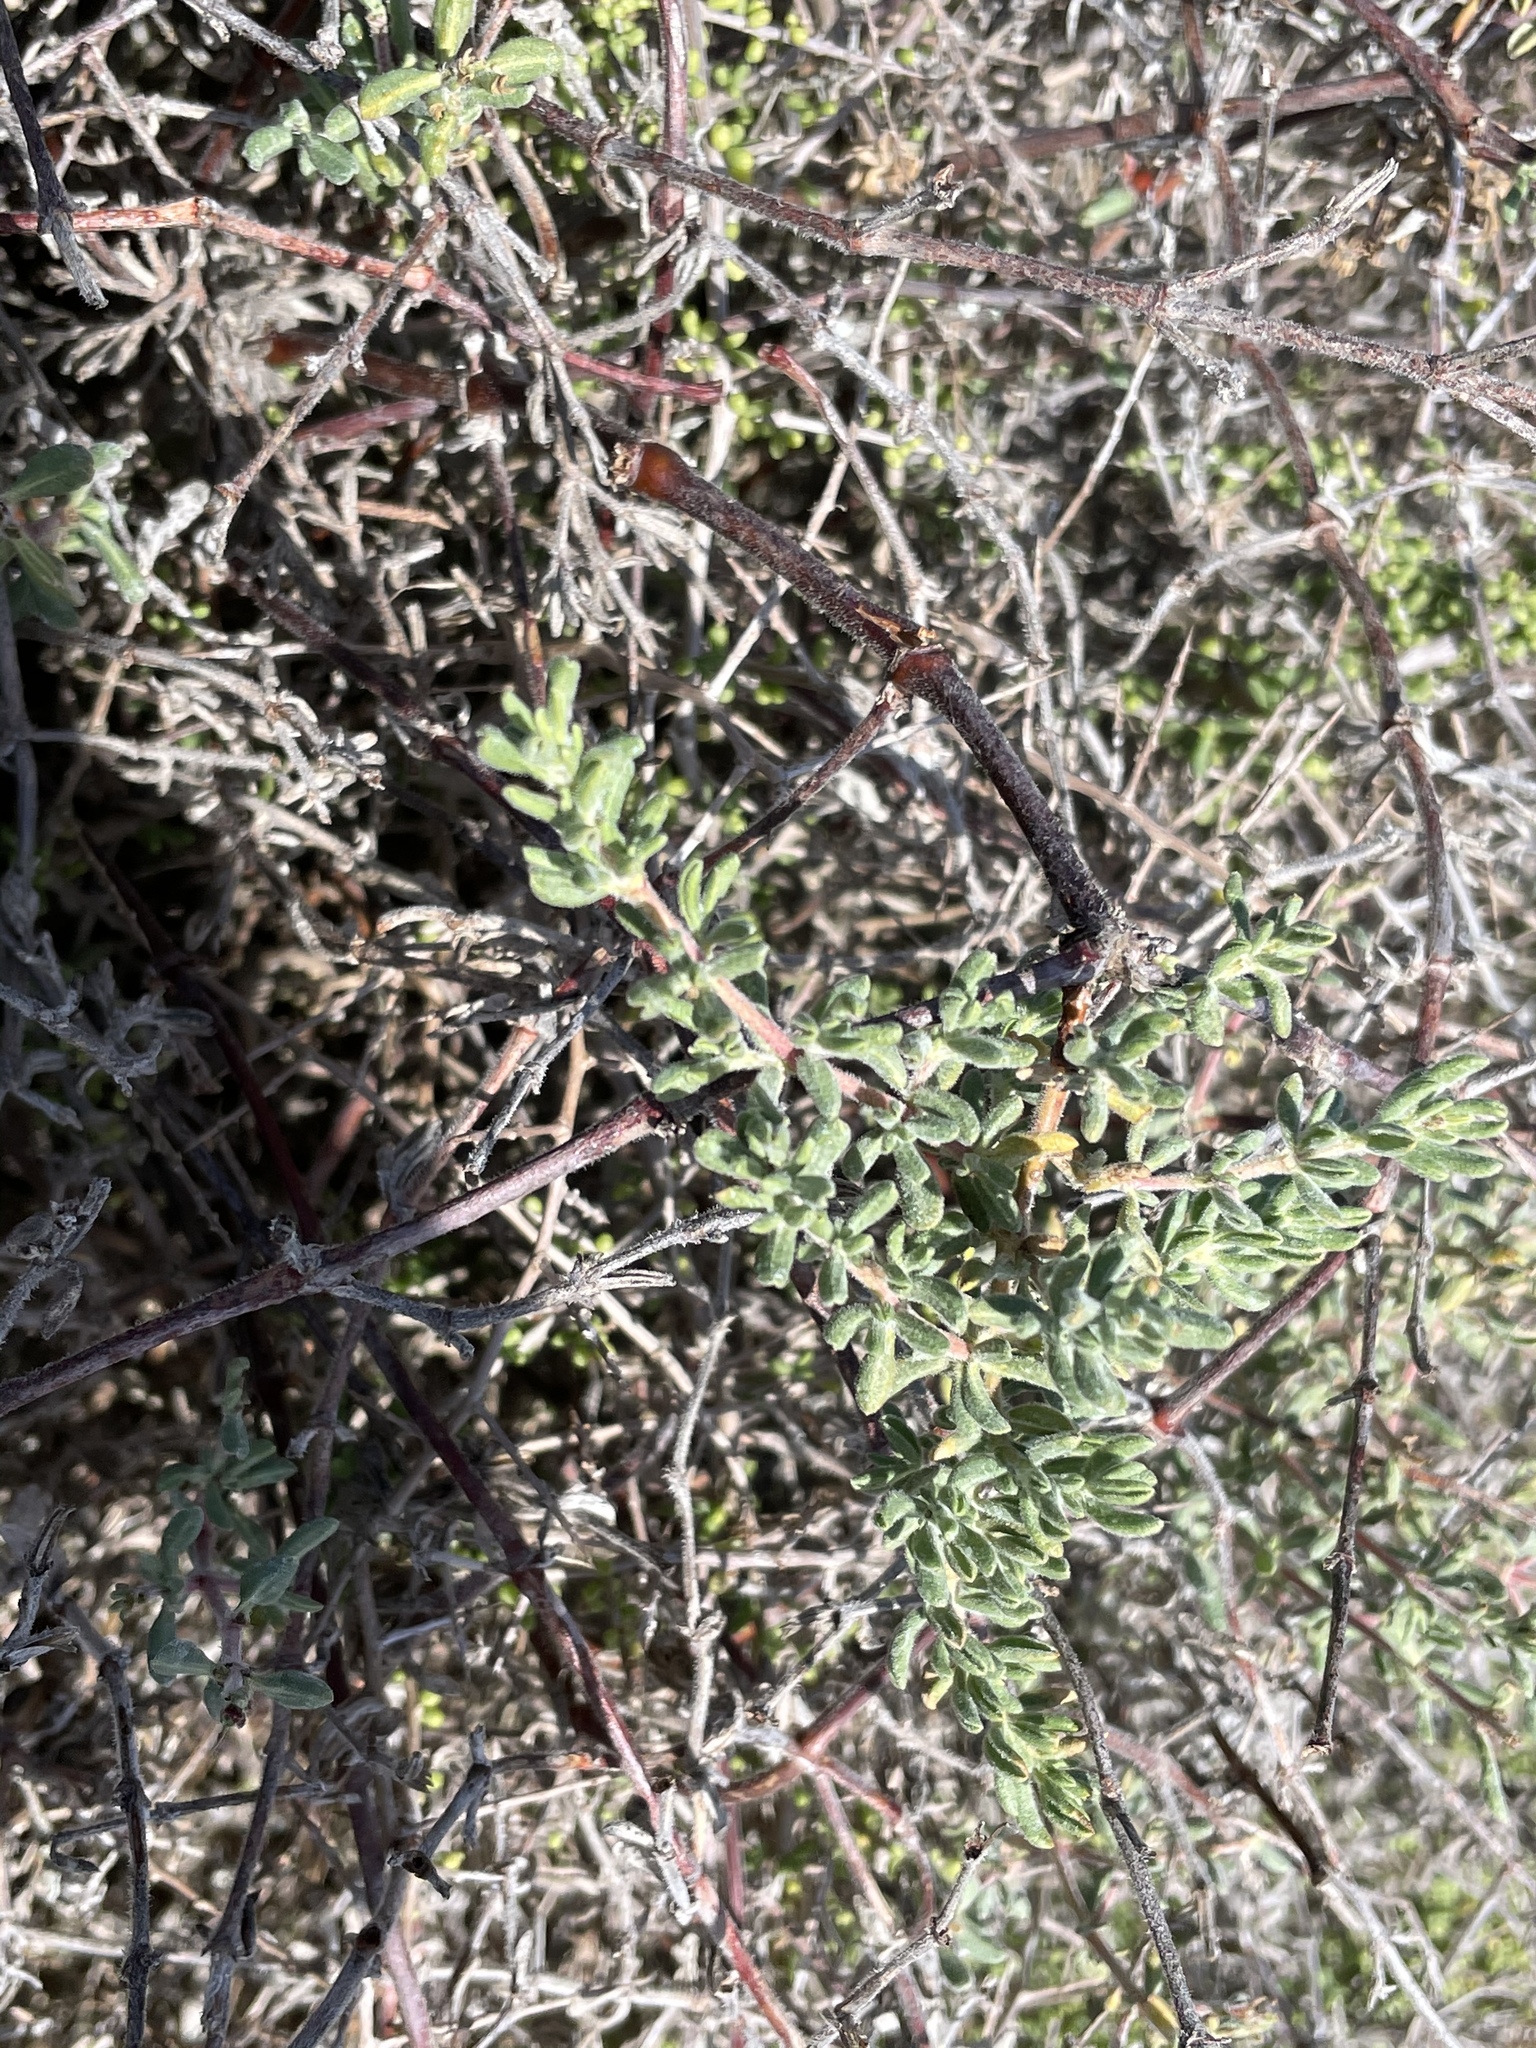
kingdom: Plantae
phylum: Tracheophyta
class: Magnoliopsida
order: Caryophyllales
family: Frankeniaceae
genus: Frankenia
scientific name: Frankenia salina
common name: Alkali seaheath
